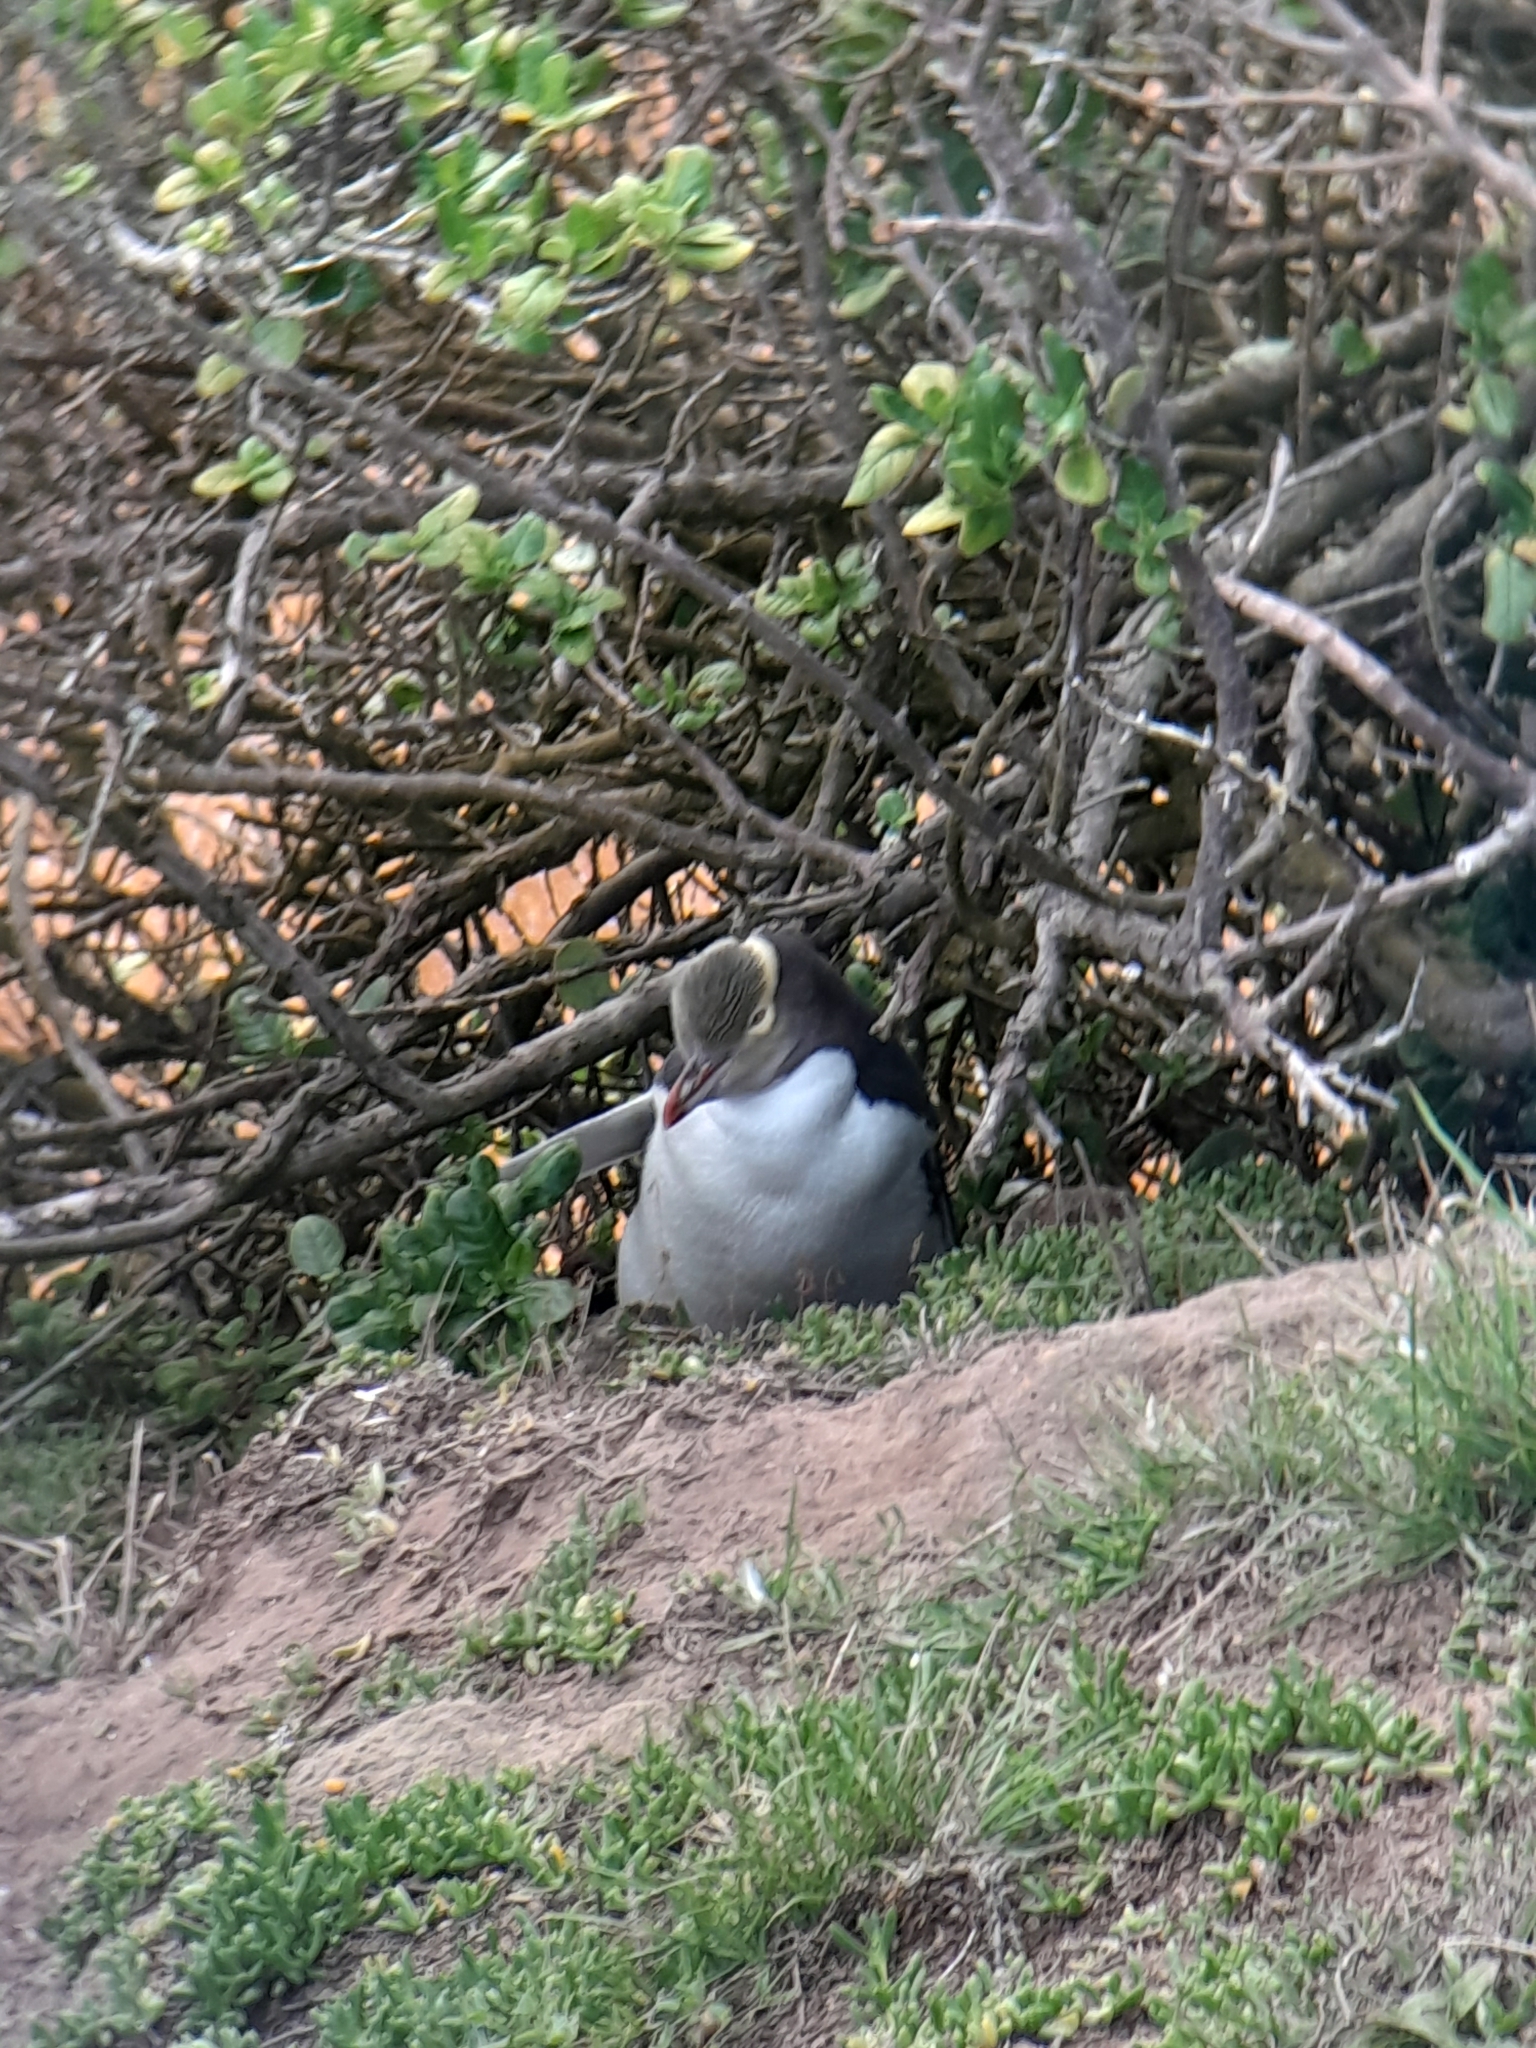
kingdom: Animalia
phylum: Chordata
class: Aves
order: Sphenisciformes
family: Spheniscidae
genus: Megadyptes
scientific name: Megadyptes antipodes
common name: Yellow-eyed penguin
